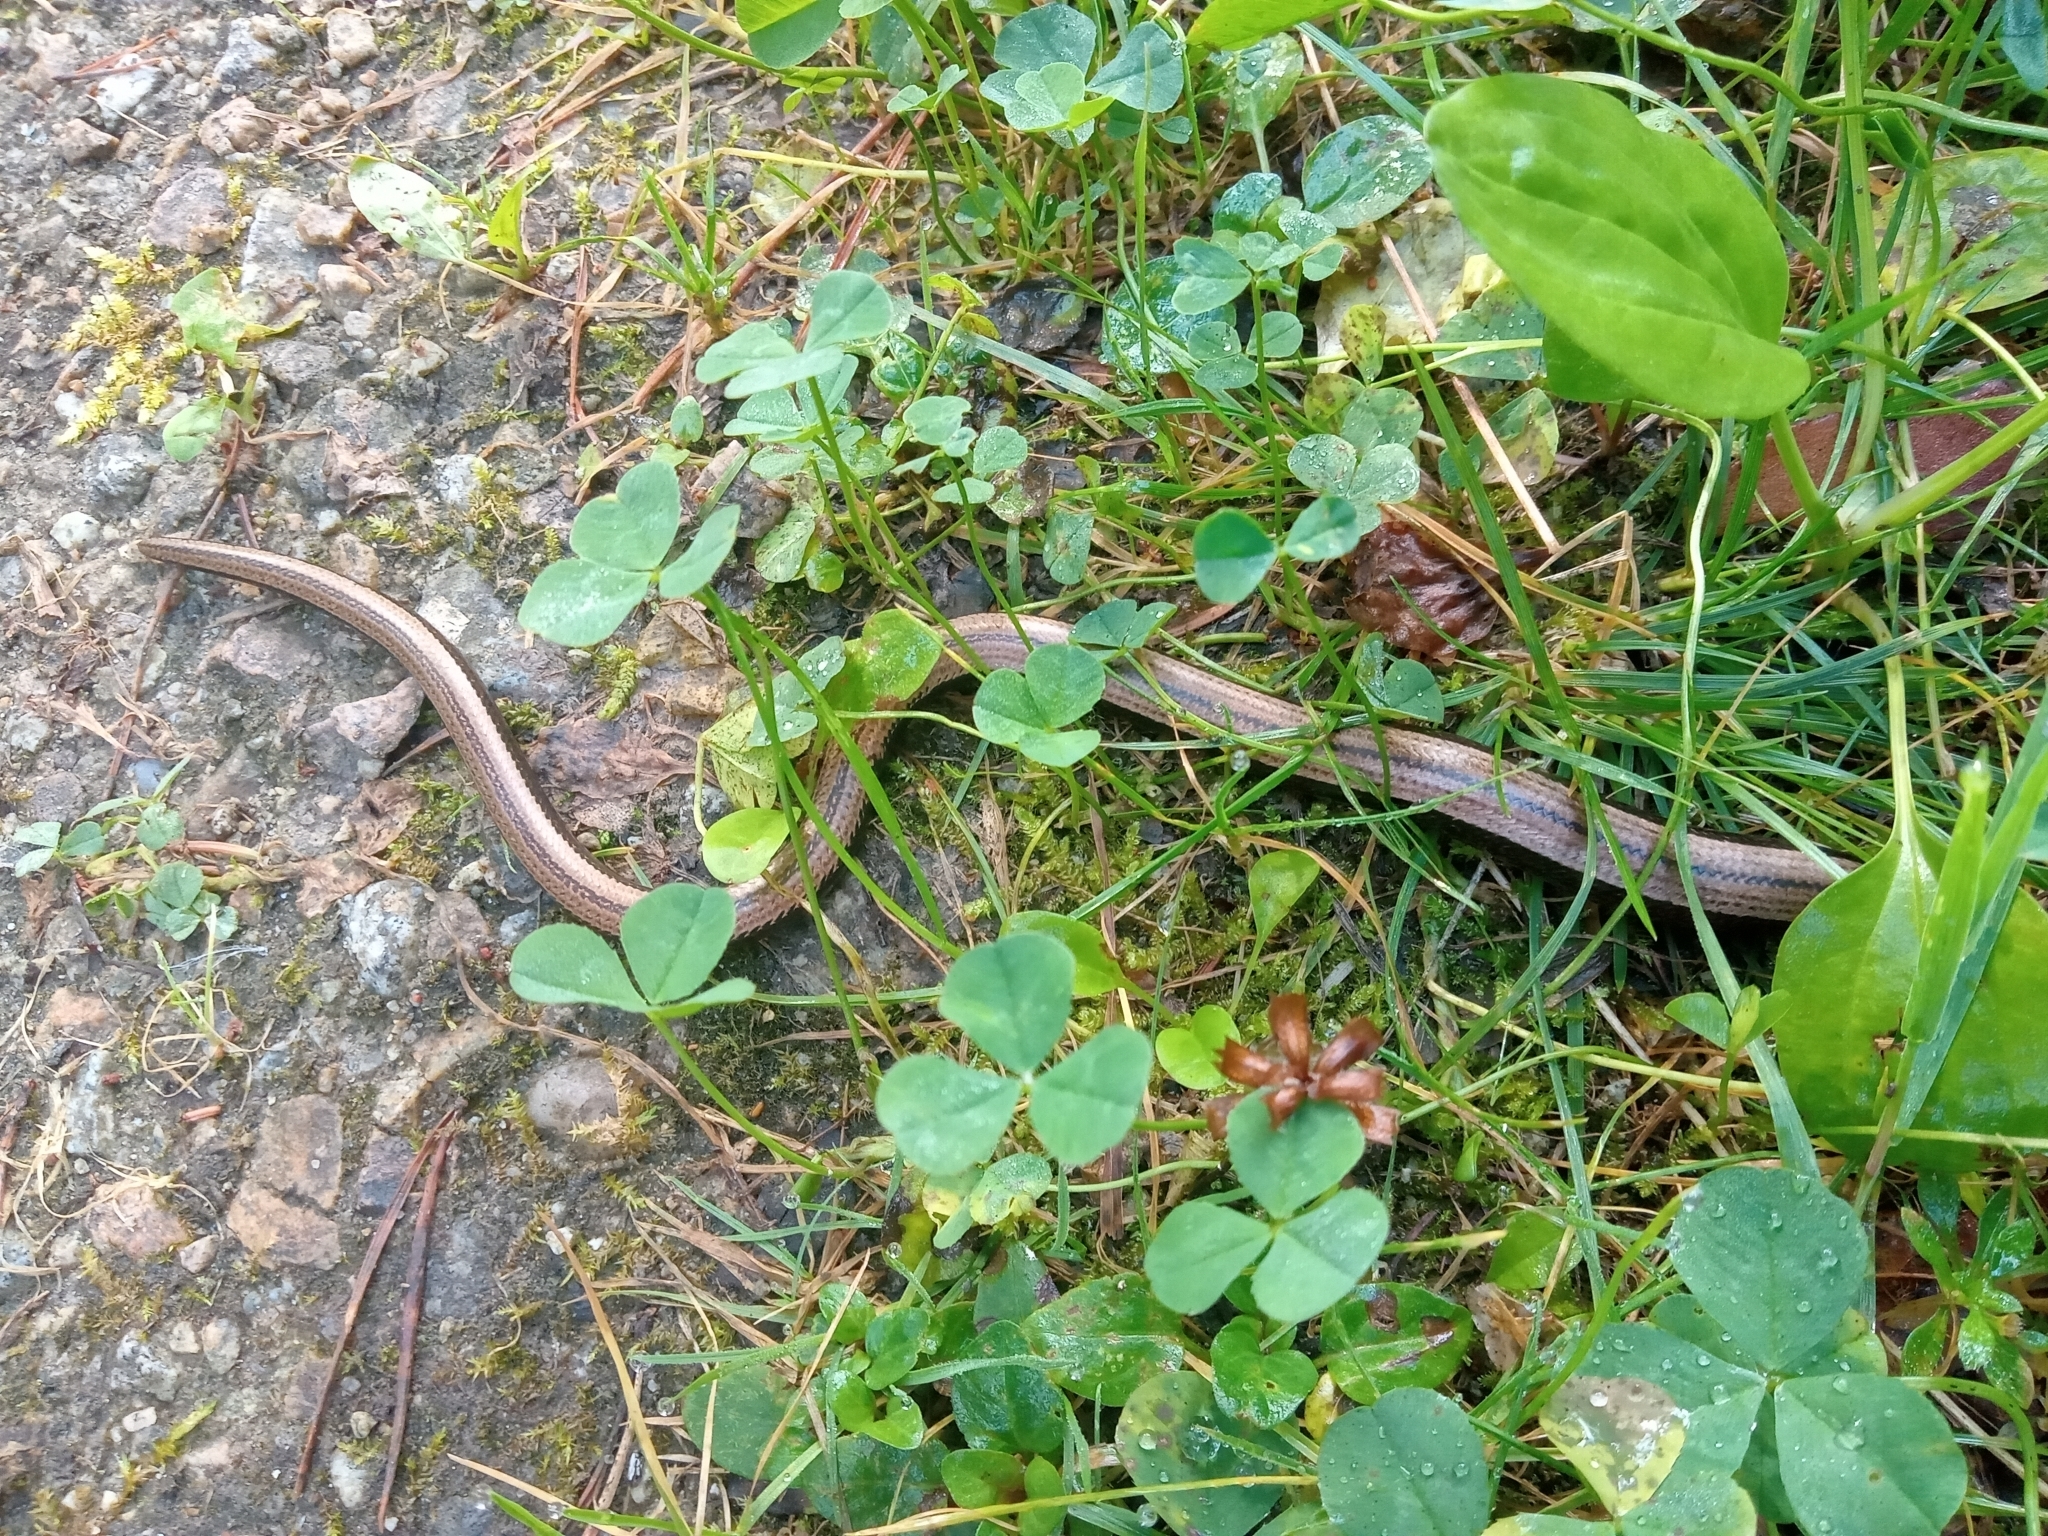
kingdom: Animalia
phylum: Chordata
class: Squamata
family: Anguidae
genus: Anguis
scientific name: Anguis fragilis
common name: Slow worm
